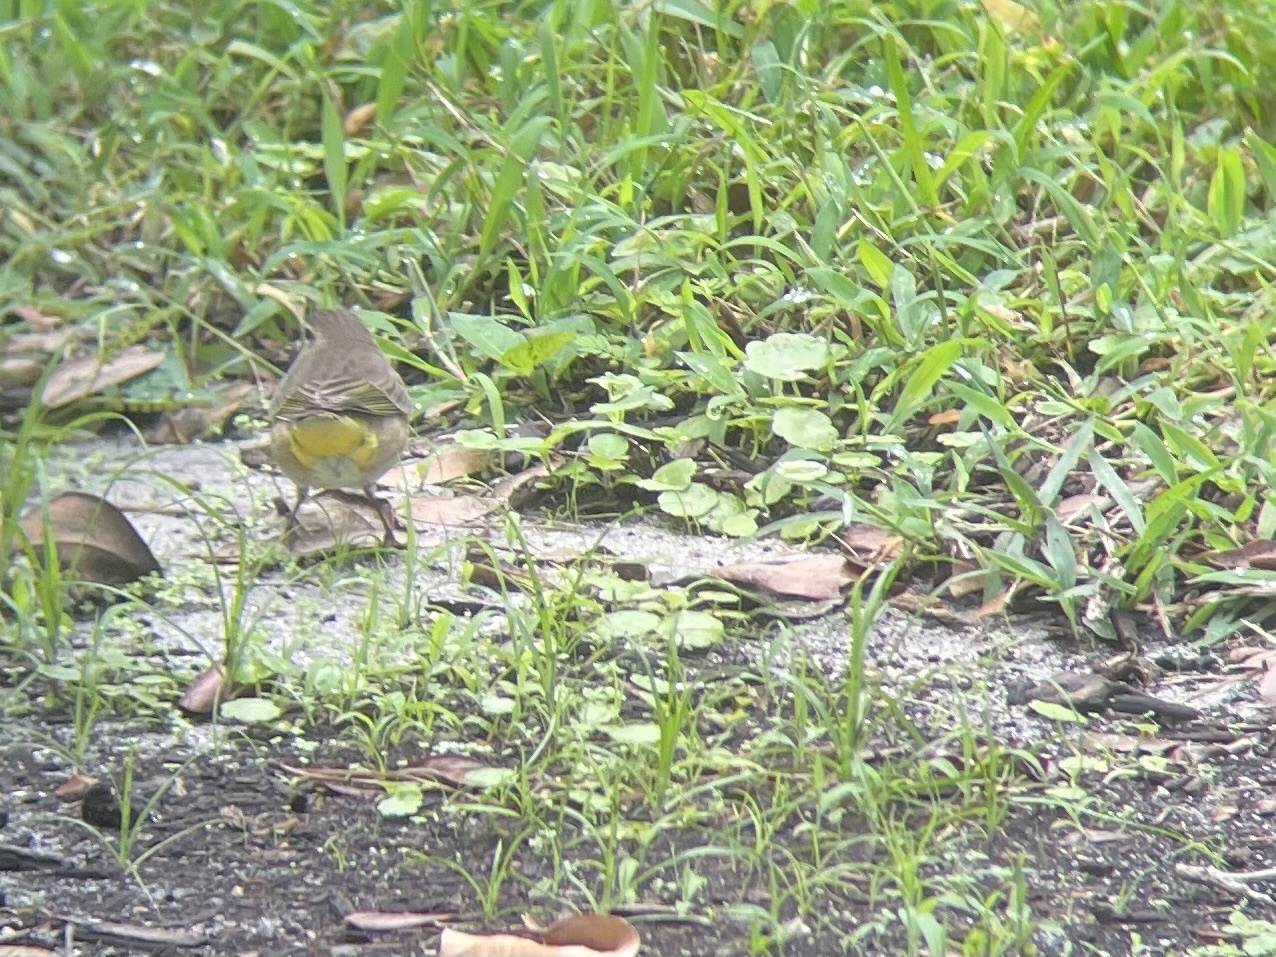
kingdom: Animalia
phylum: Chordata
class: Aves
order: Passeriformes
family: Parulidae
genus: Setophaga
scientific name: Setophaga palmarum
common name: Palm warbler
